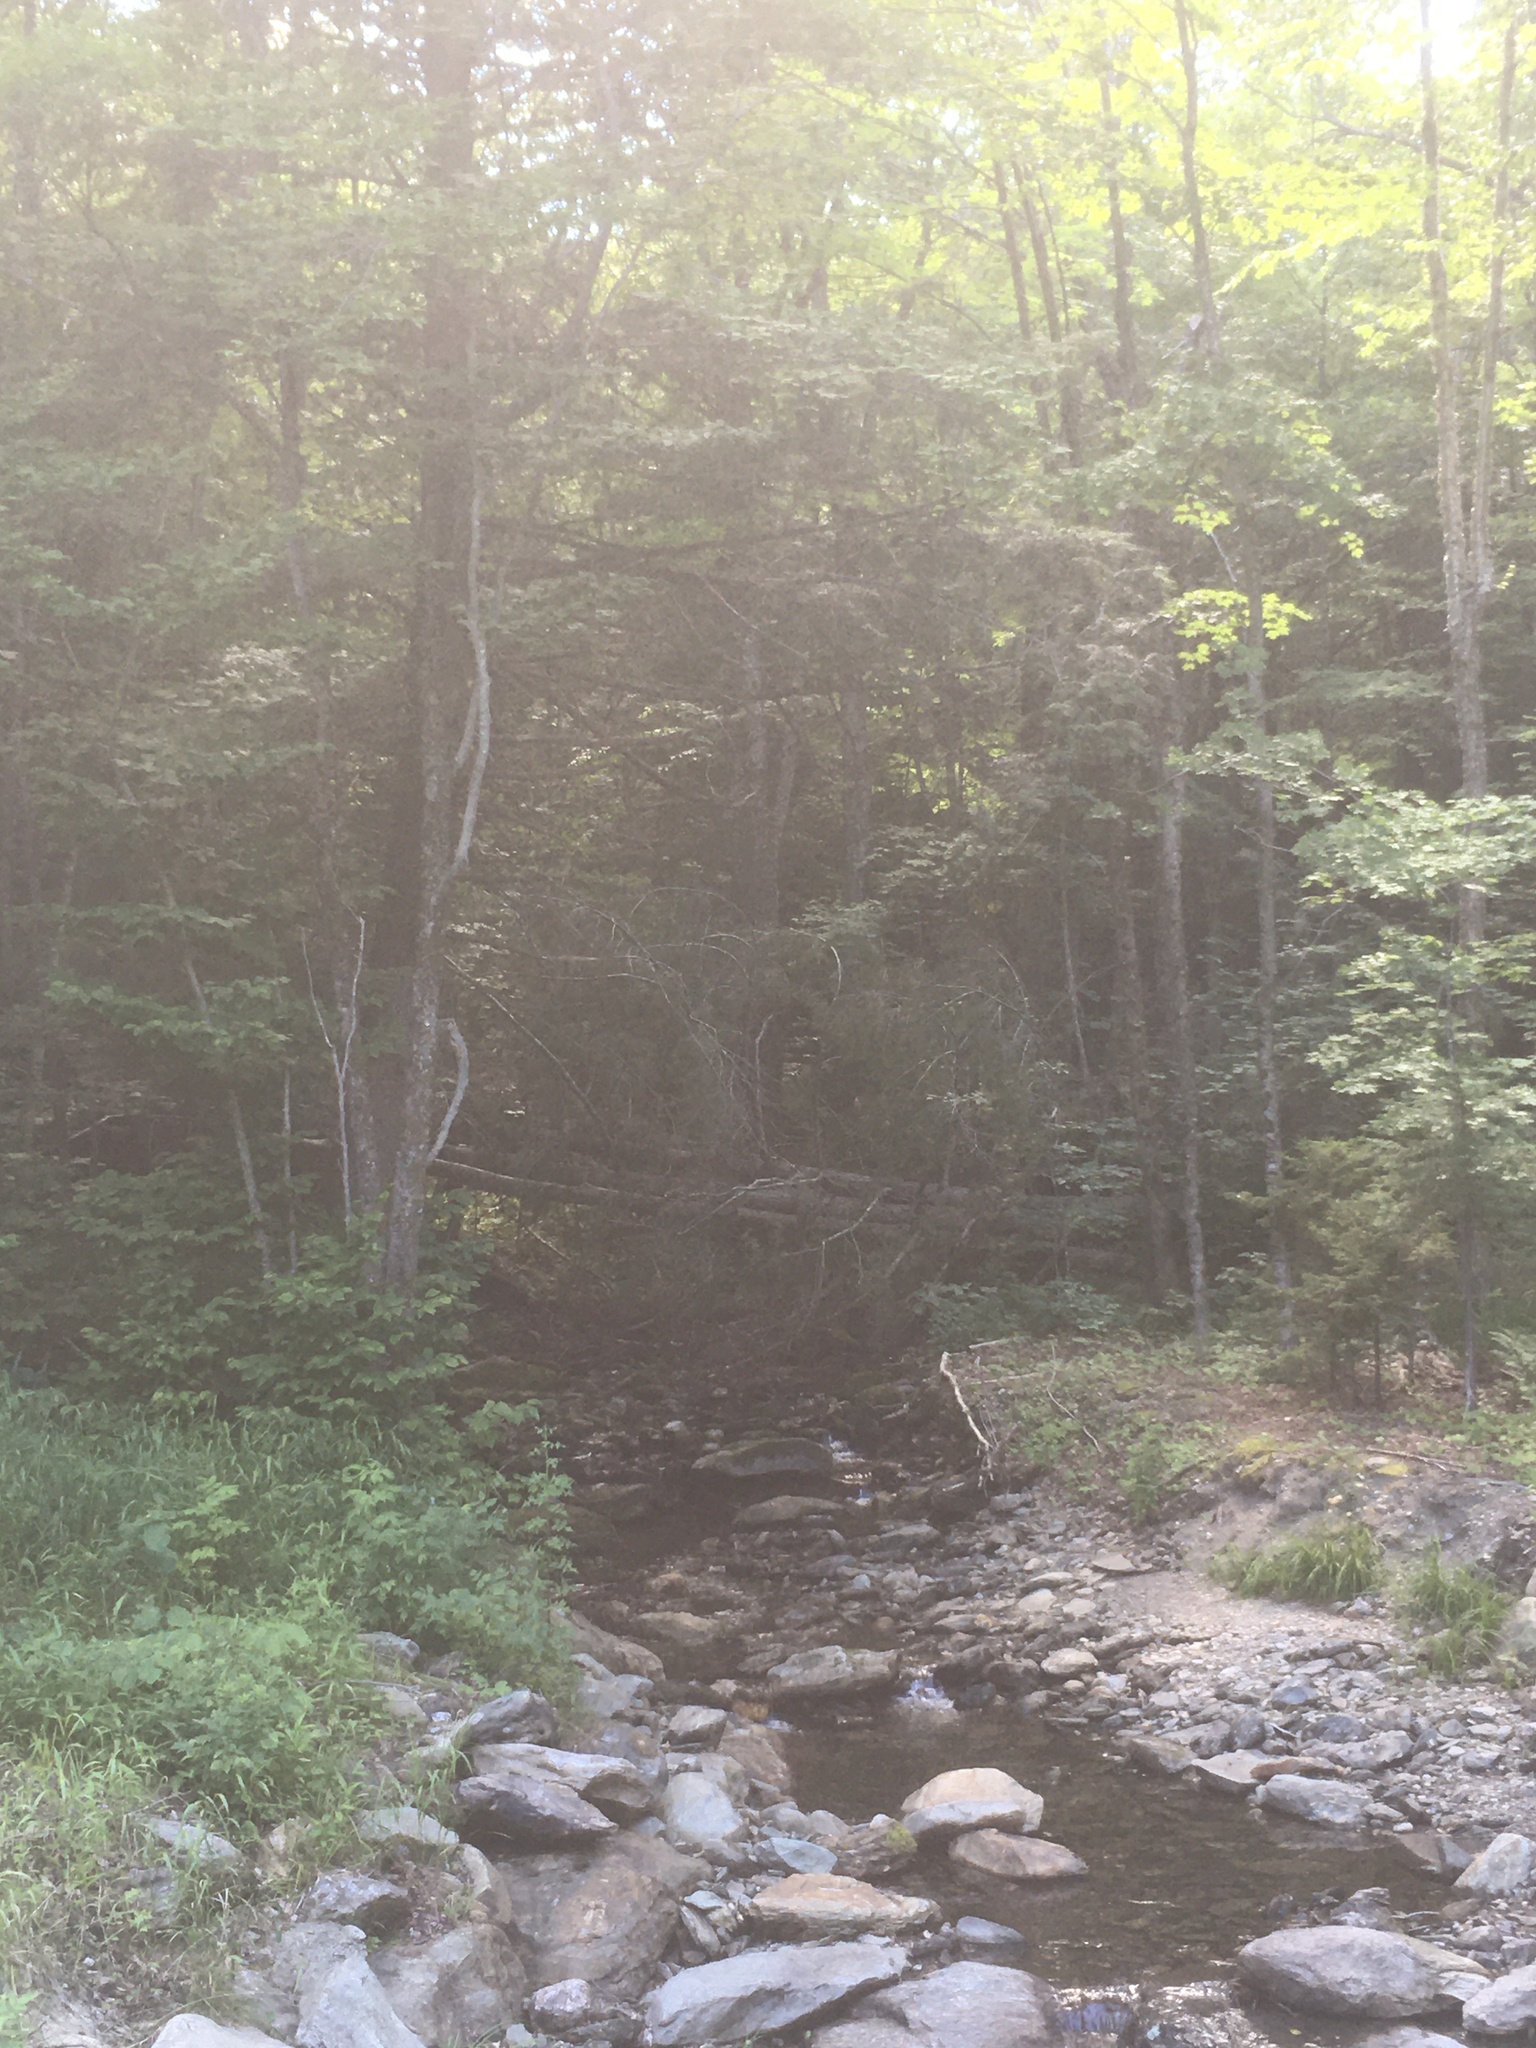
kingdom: Plantae
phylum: Tracheophyta
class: Pinopsida
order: Pinales
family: Pinaceae
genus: Tsuga
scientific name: Tsuga canadensis
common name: Eastern hemlock
